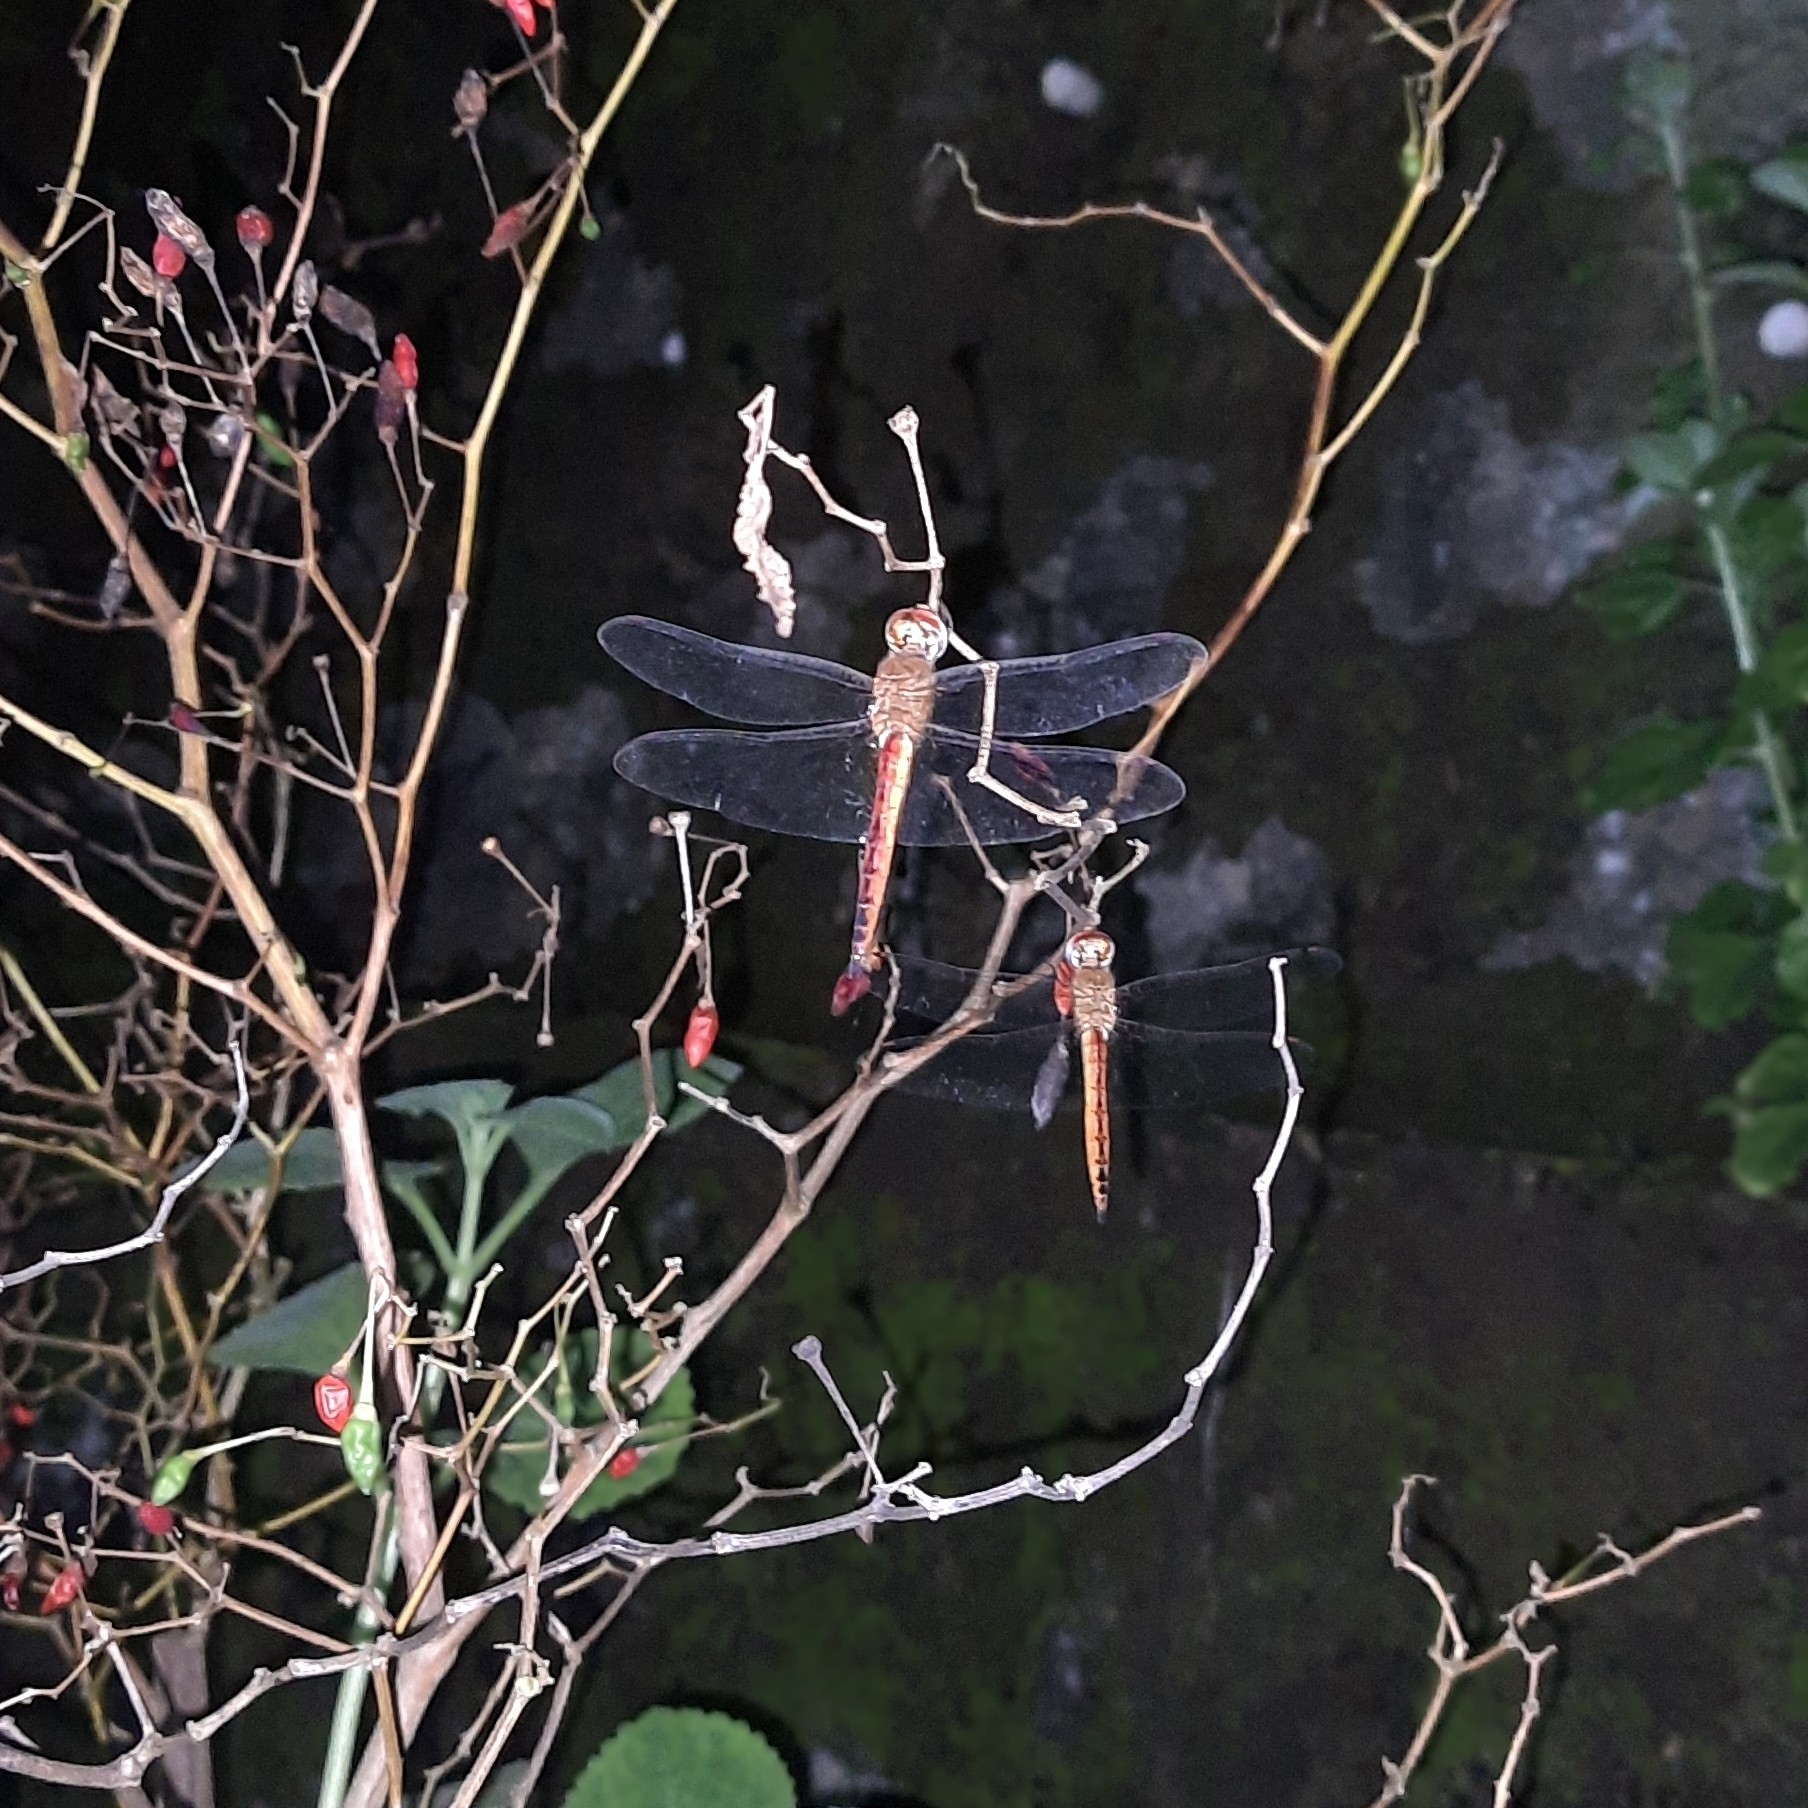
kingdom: Animalia
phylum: Arthropoda
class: Insecta
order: Odonata
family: Libellulidae
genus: Pantala
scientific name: Pantala flavescens
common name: Wandering glider
